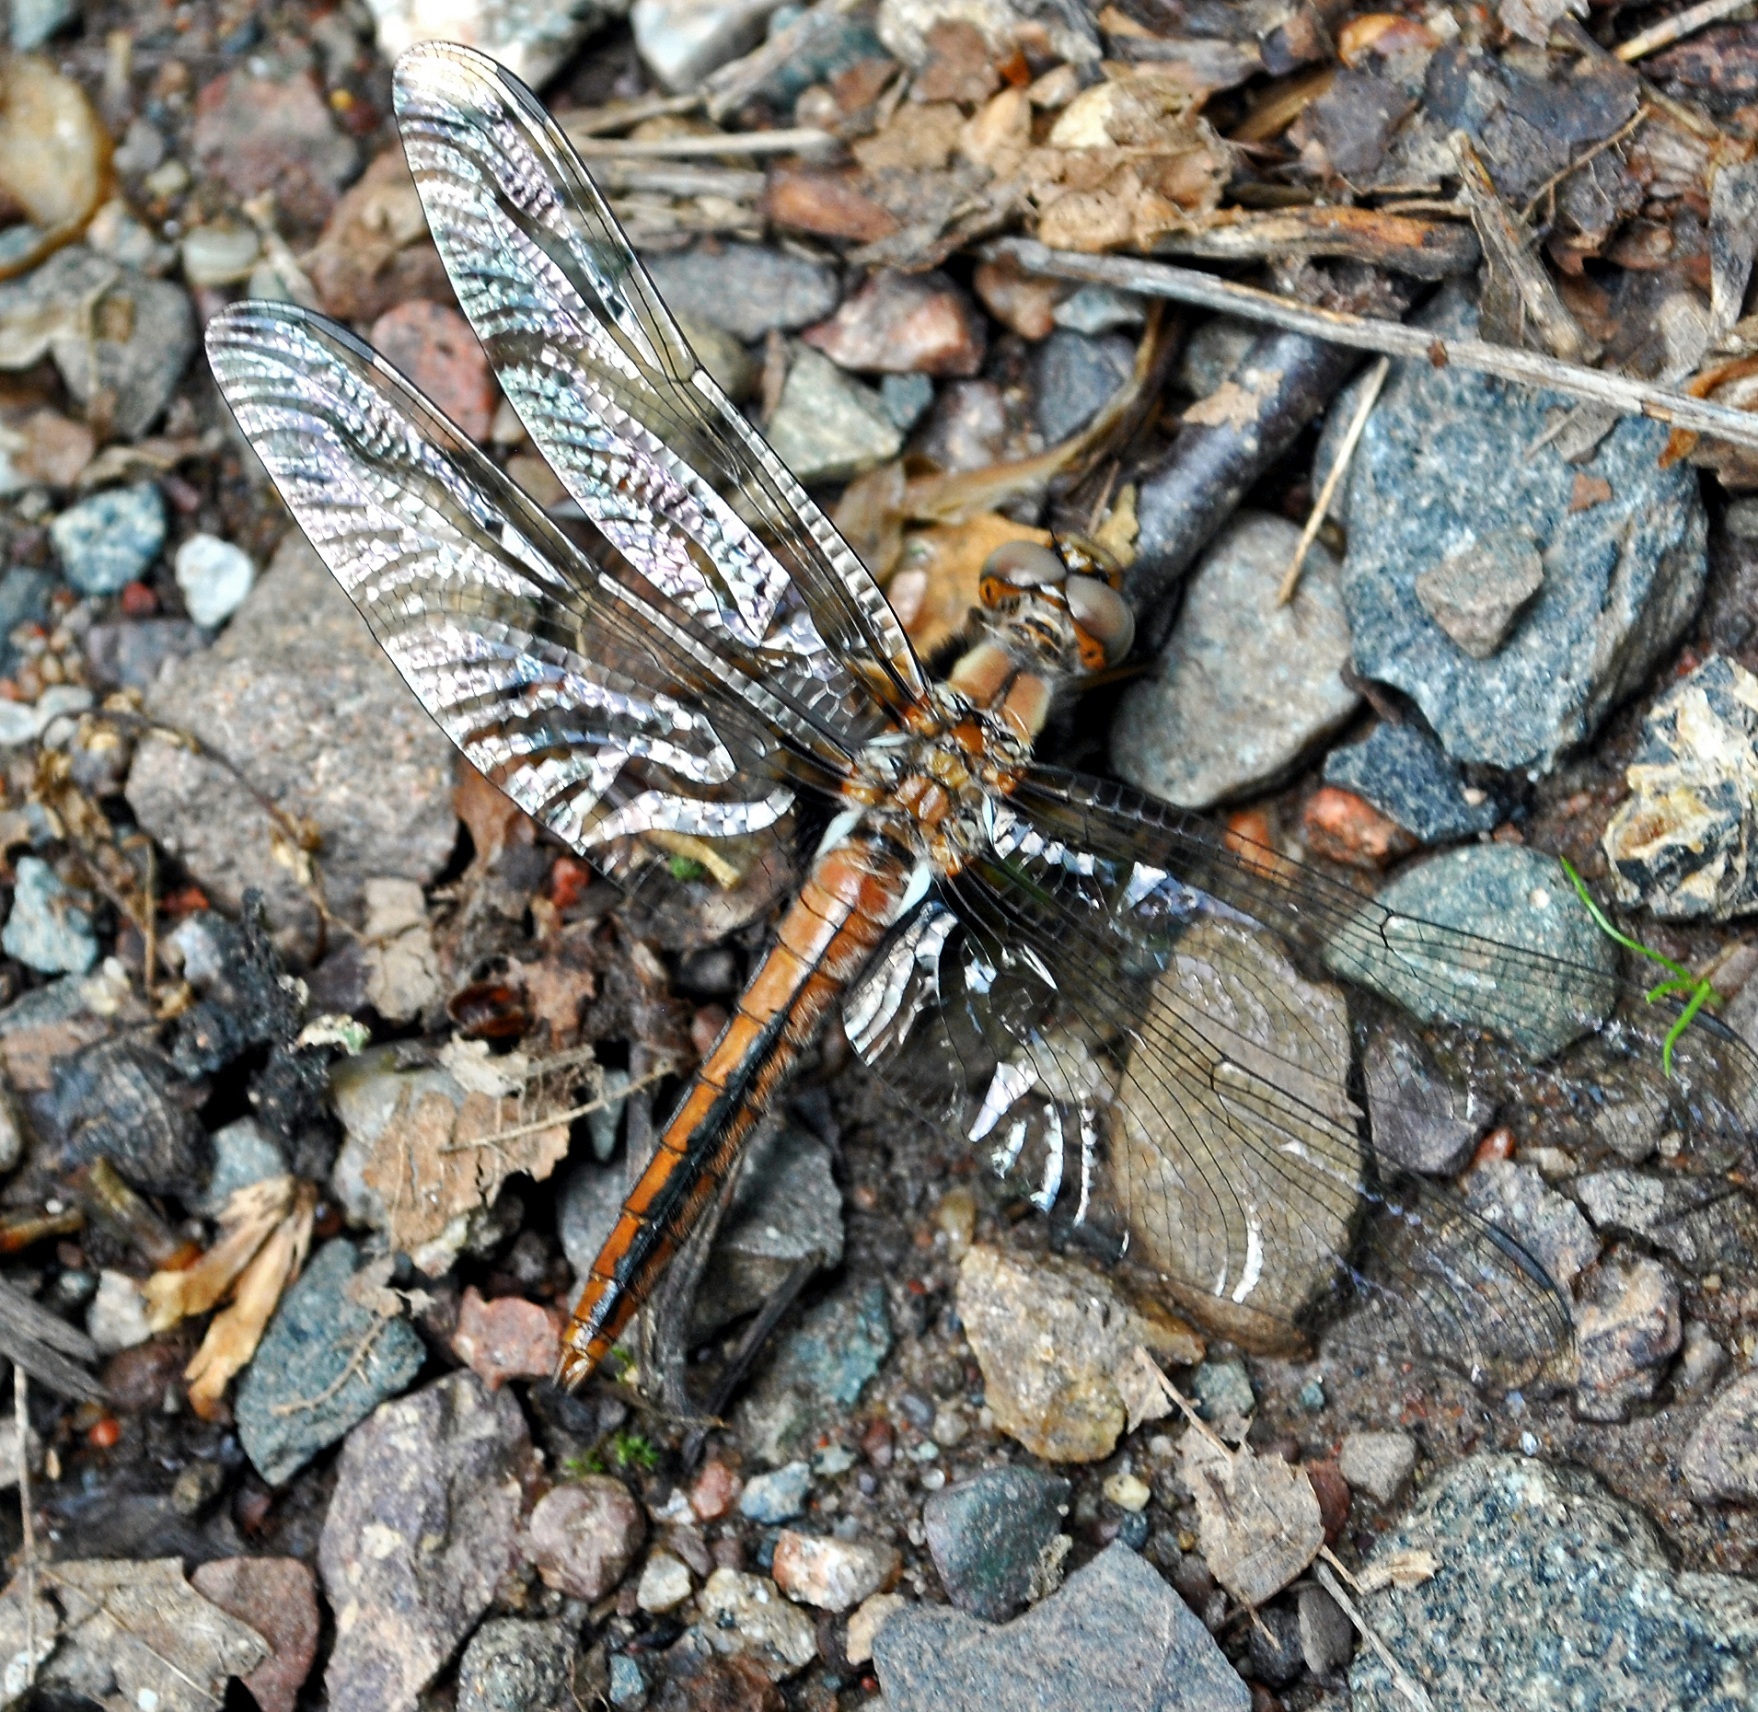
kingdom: Animalia
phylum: Arthropoda
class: Insecta
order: Odonata
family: Libellulidae
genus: Ladona
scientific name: Ladona julia
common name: Chalk-fronted corporal
